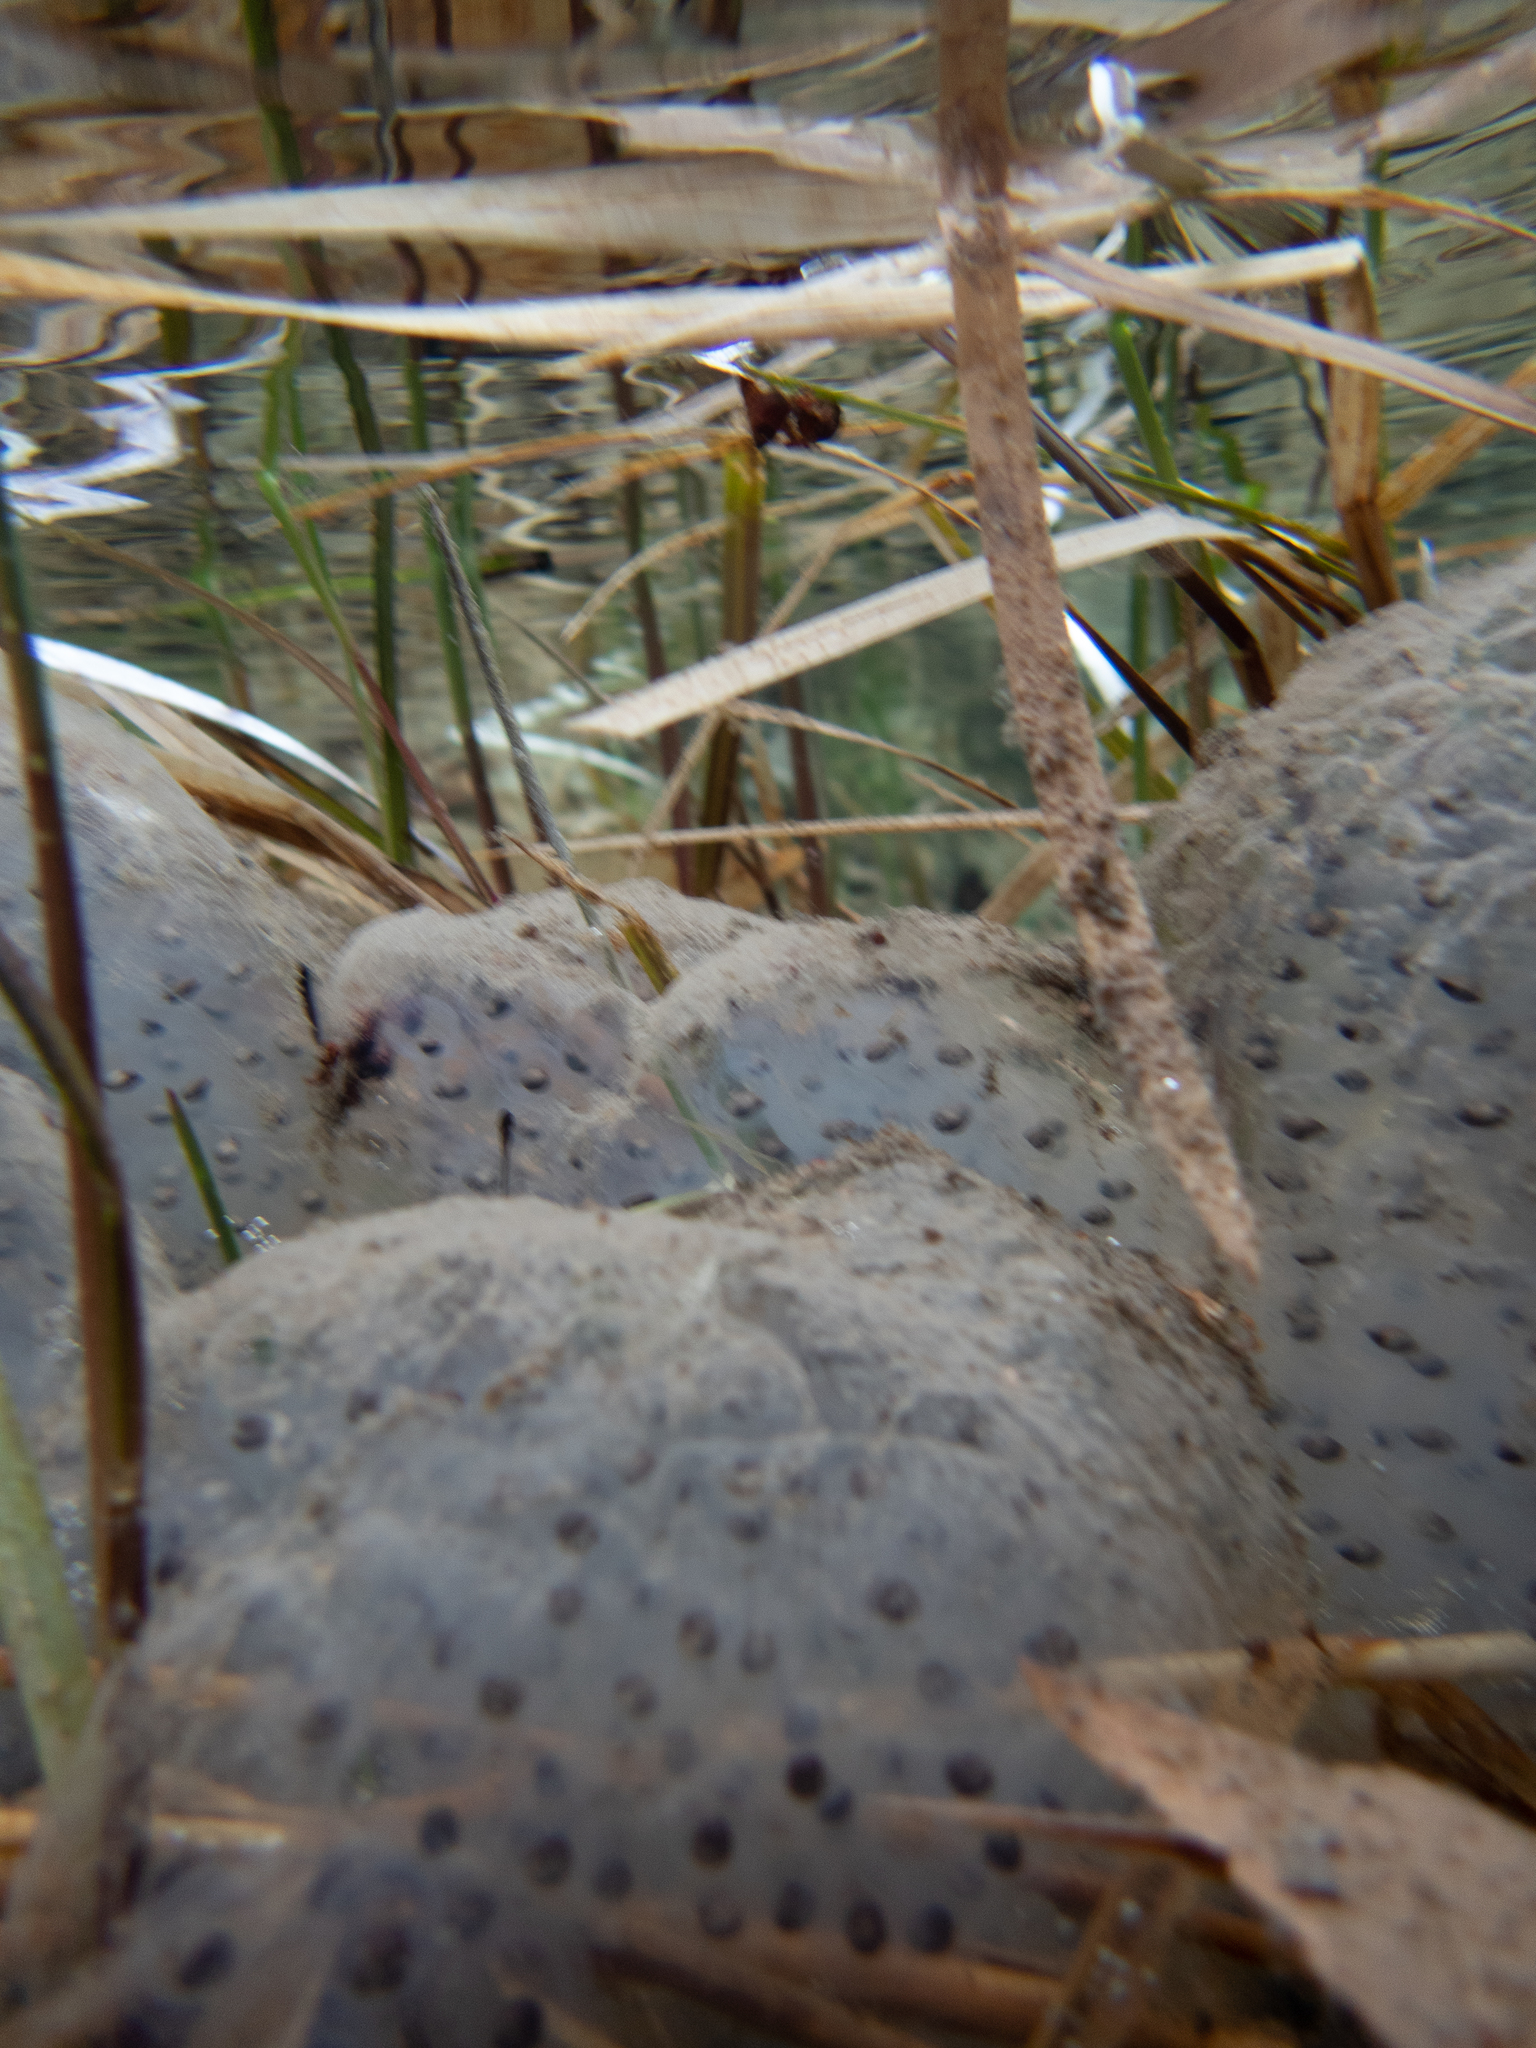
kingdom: Animalia
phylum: Chordata
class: Amphibia
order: Caudata
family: Ambystomatidae
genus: Ambystoma
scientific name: Ambystoma maculatum
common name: Spotted salamander
